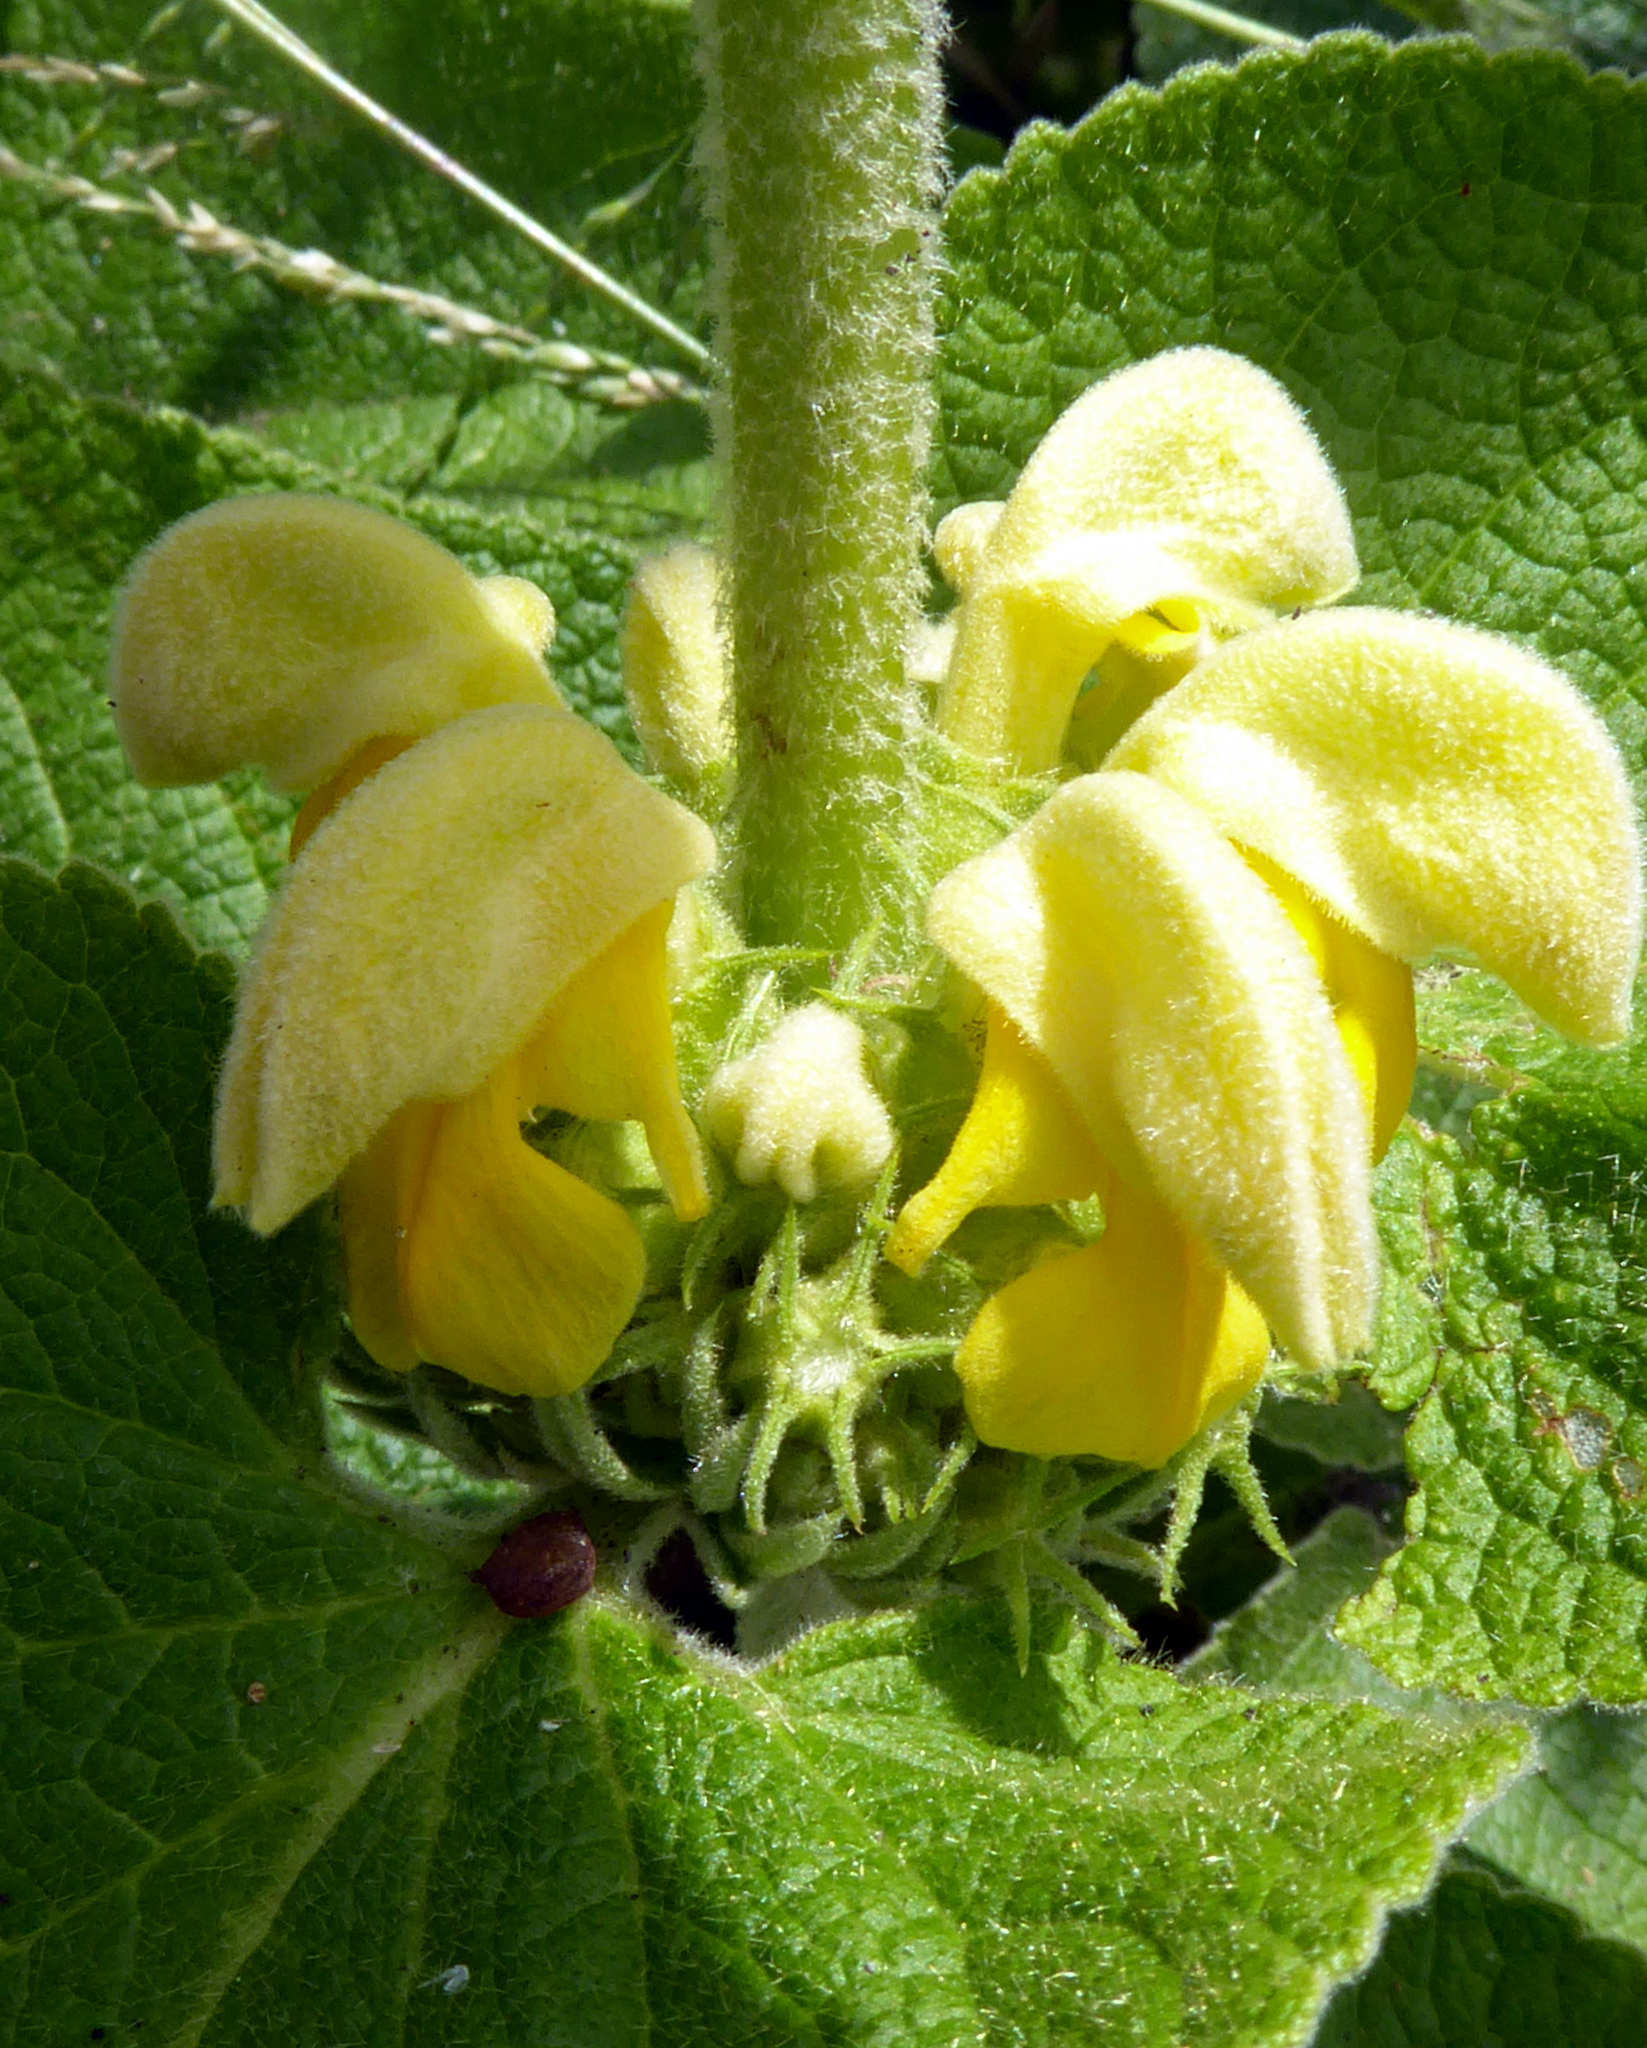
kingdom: Plantae
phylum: Tracheophyta
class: Magnoliopsida
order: Lamiales
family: Lamiaceae
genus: Phlomis
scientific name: Phlomis russeliana
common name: Turkish sage
